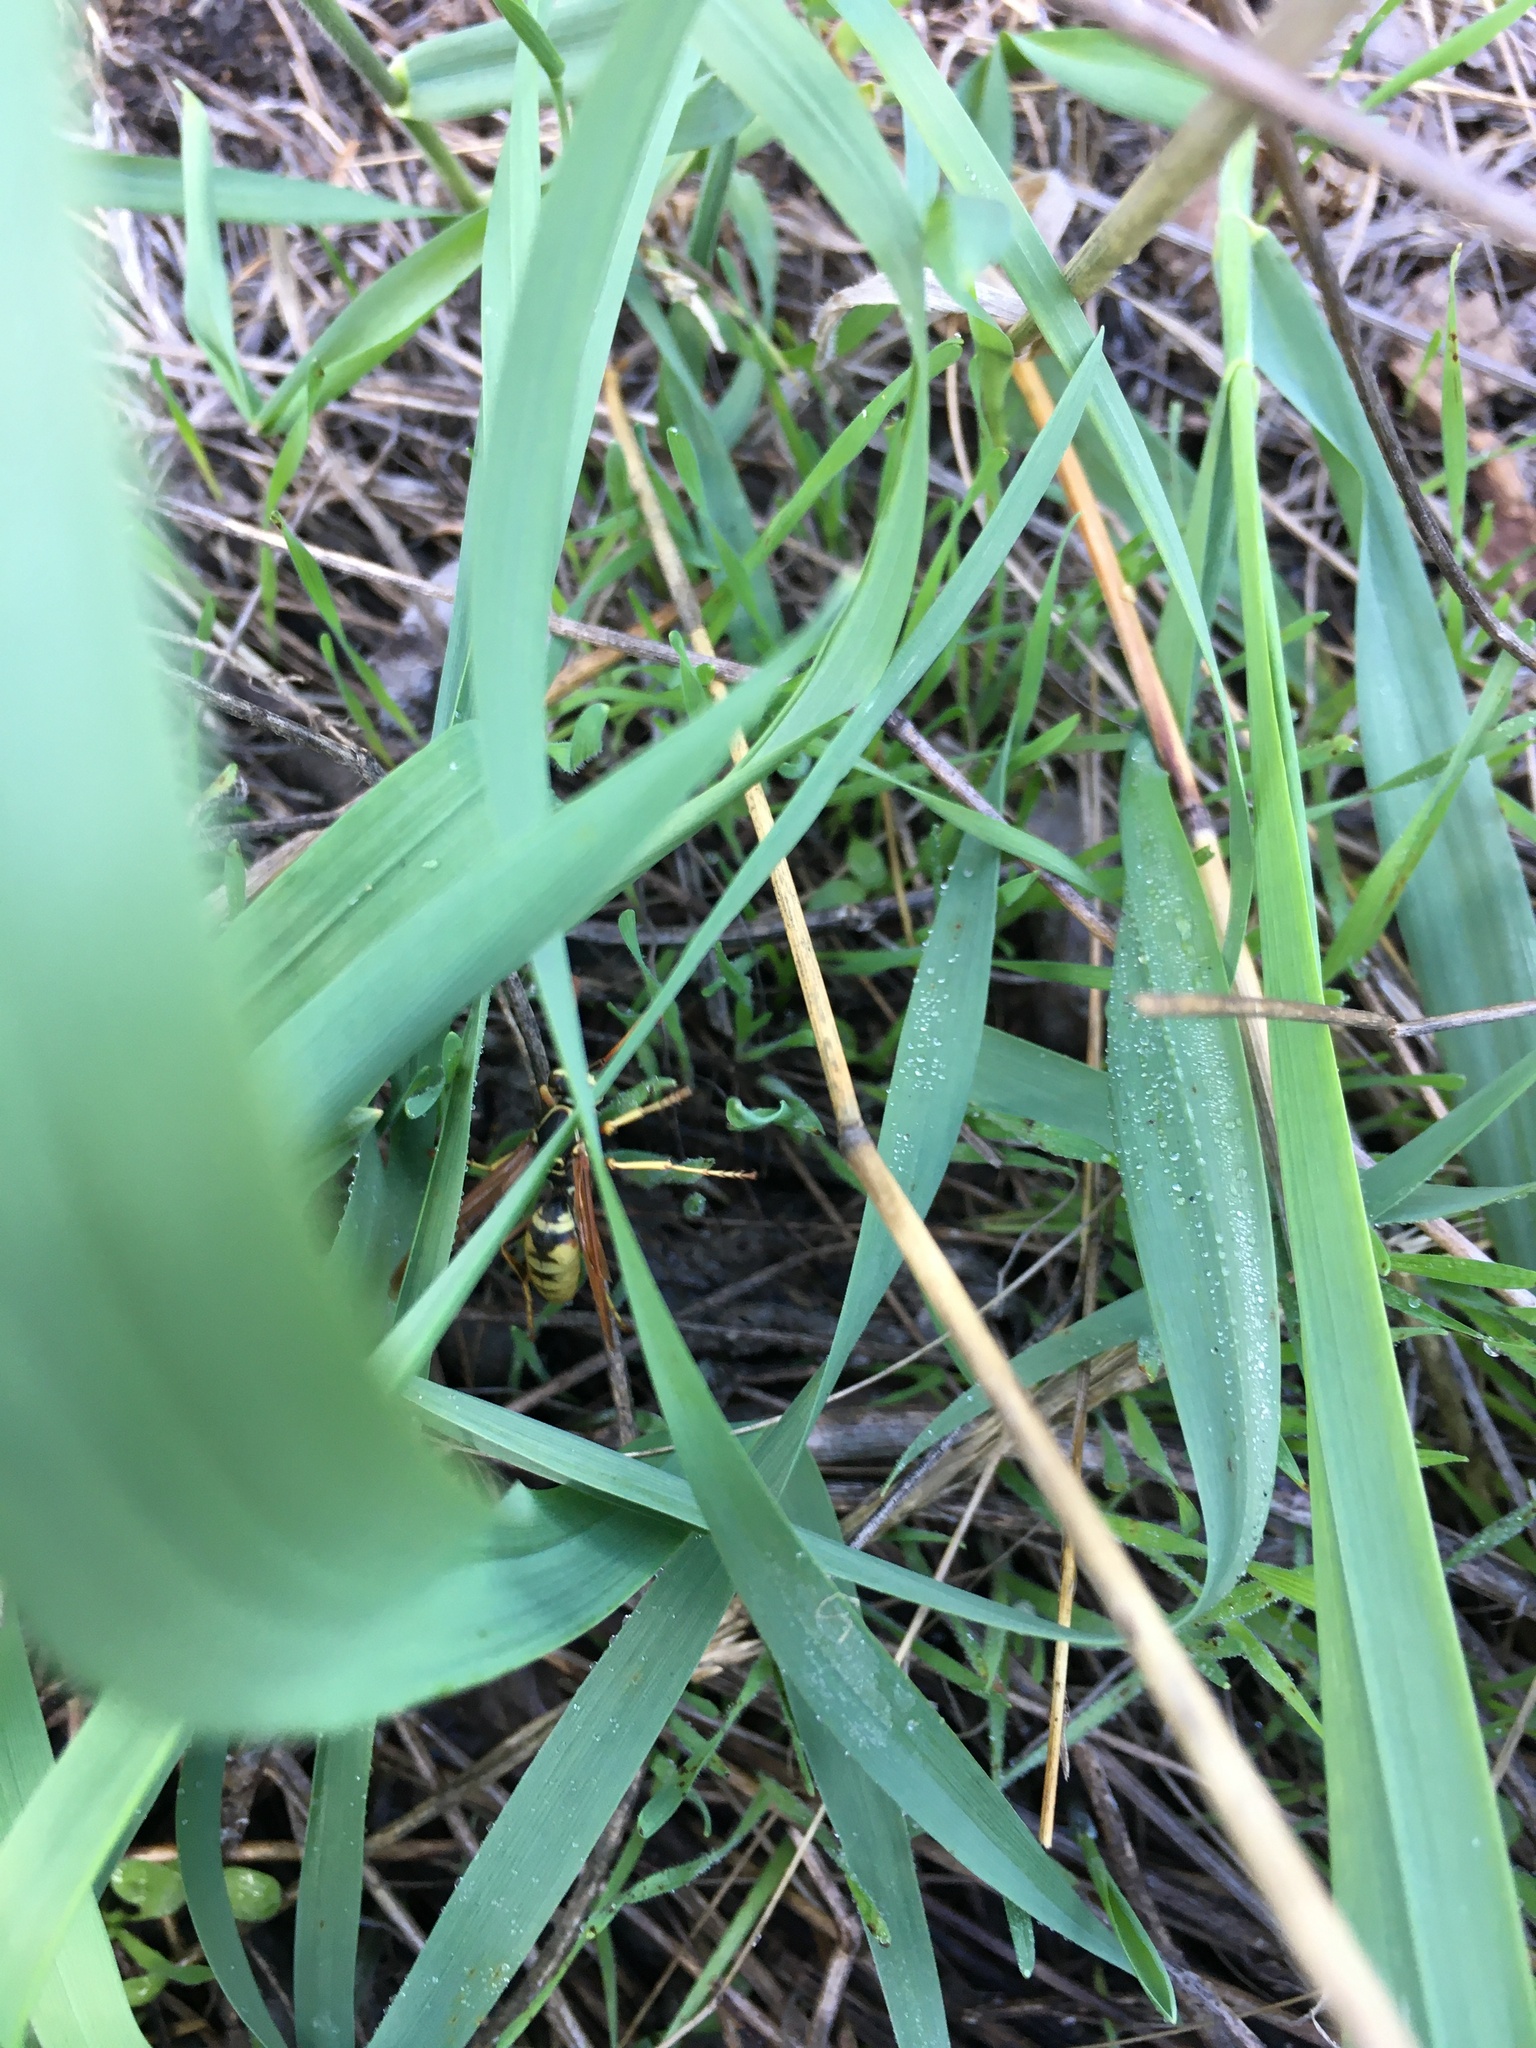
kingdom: Animalia
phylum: Arthropoda
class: Insecta
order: Hymenoptera
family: Eumenidae
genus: Polistes
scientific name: Polistes aurifer
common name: Paper wasp
